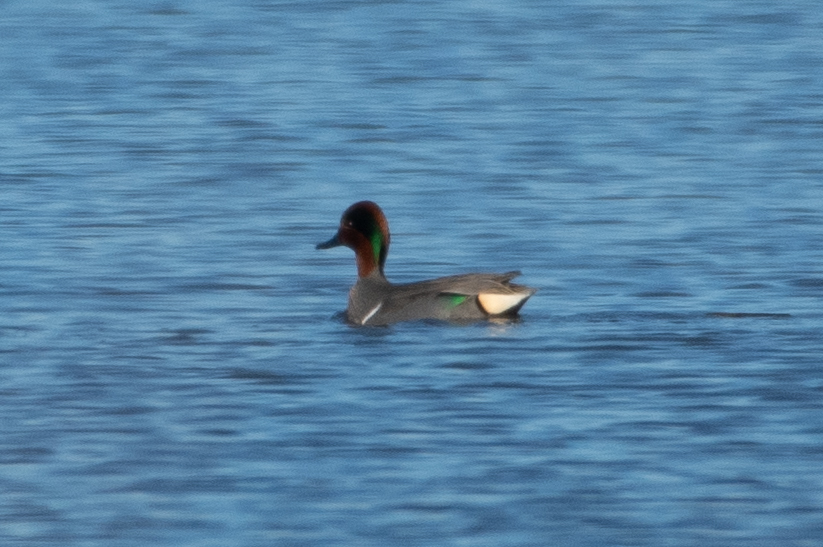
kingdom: Animalia
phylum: Chordata
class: Aves
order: Anseriformes
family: Anatidae
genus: Anas
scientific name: Anas crecca
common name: Eurasian teal
